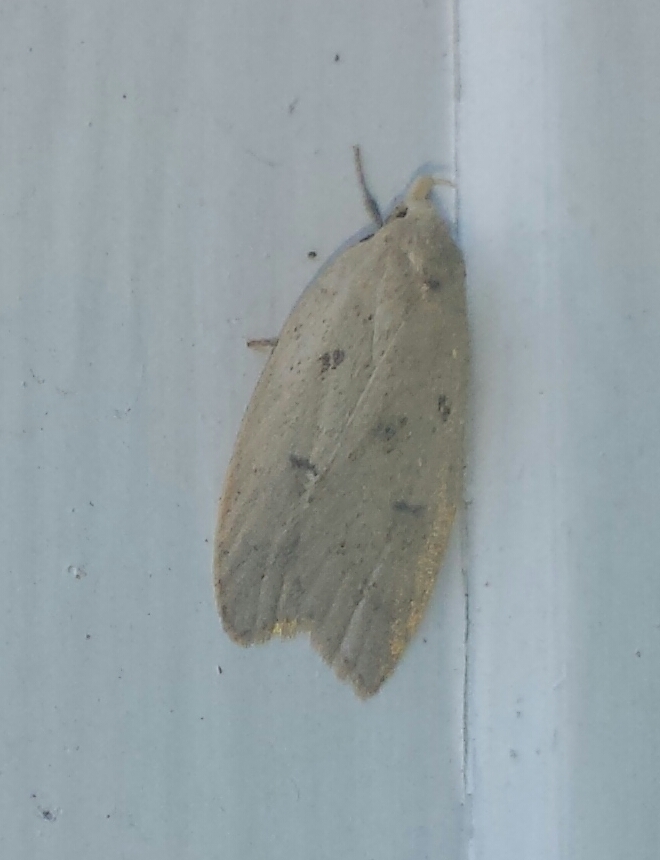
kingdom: Animalia
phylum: Arthropoda
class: Insecta
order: Lepidoptera
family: Peleopodidae
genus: Machimia
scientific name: Machimia tentoriferella
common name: Gold-striped leaftier moth
